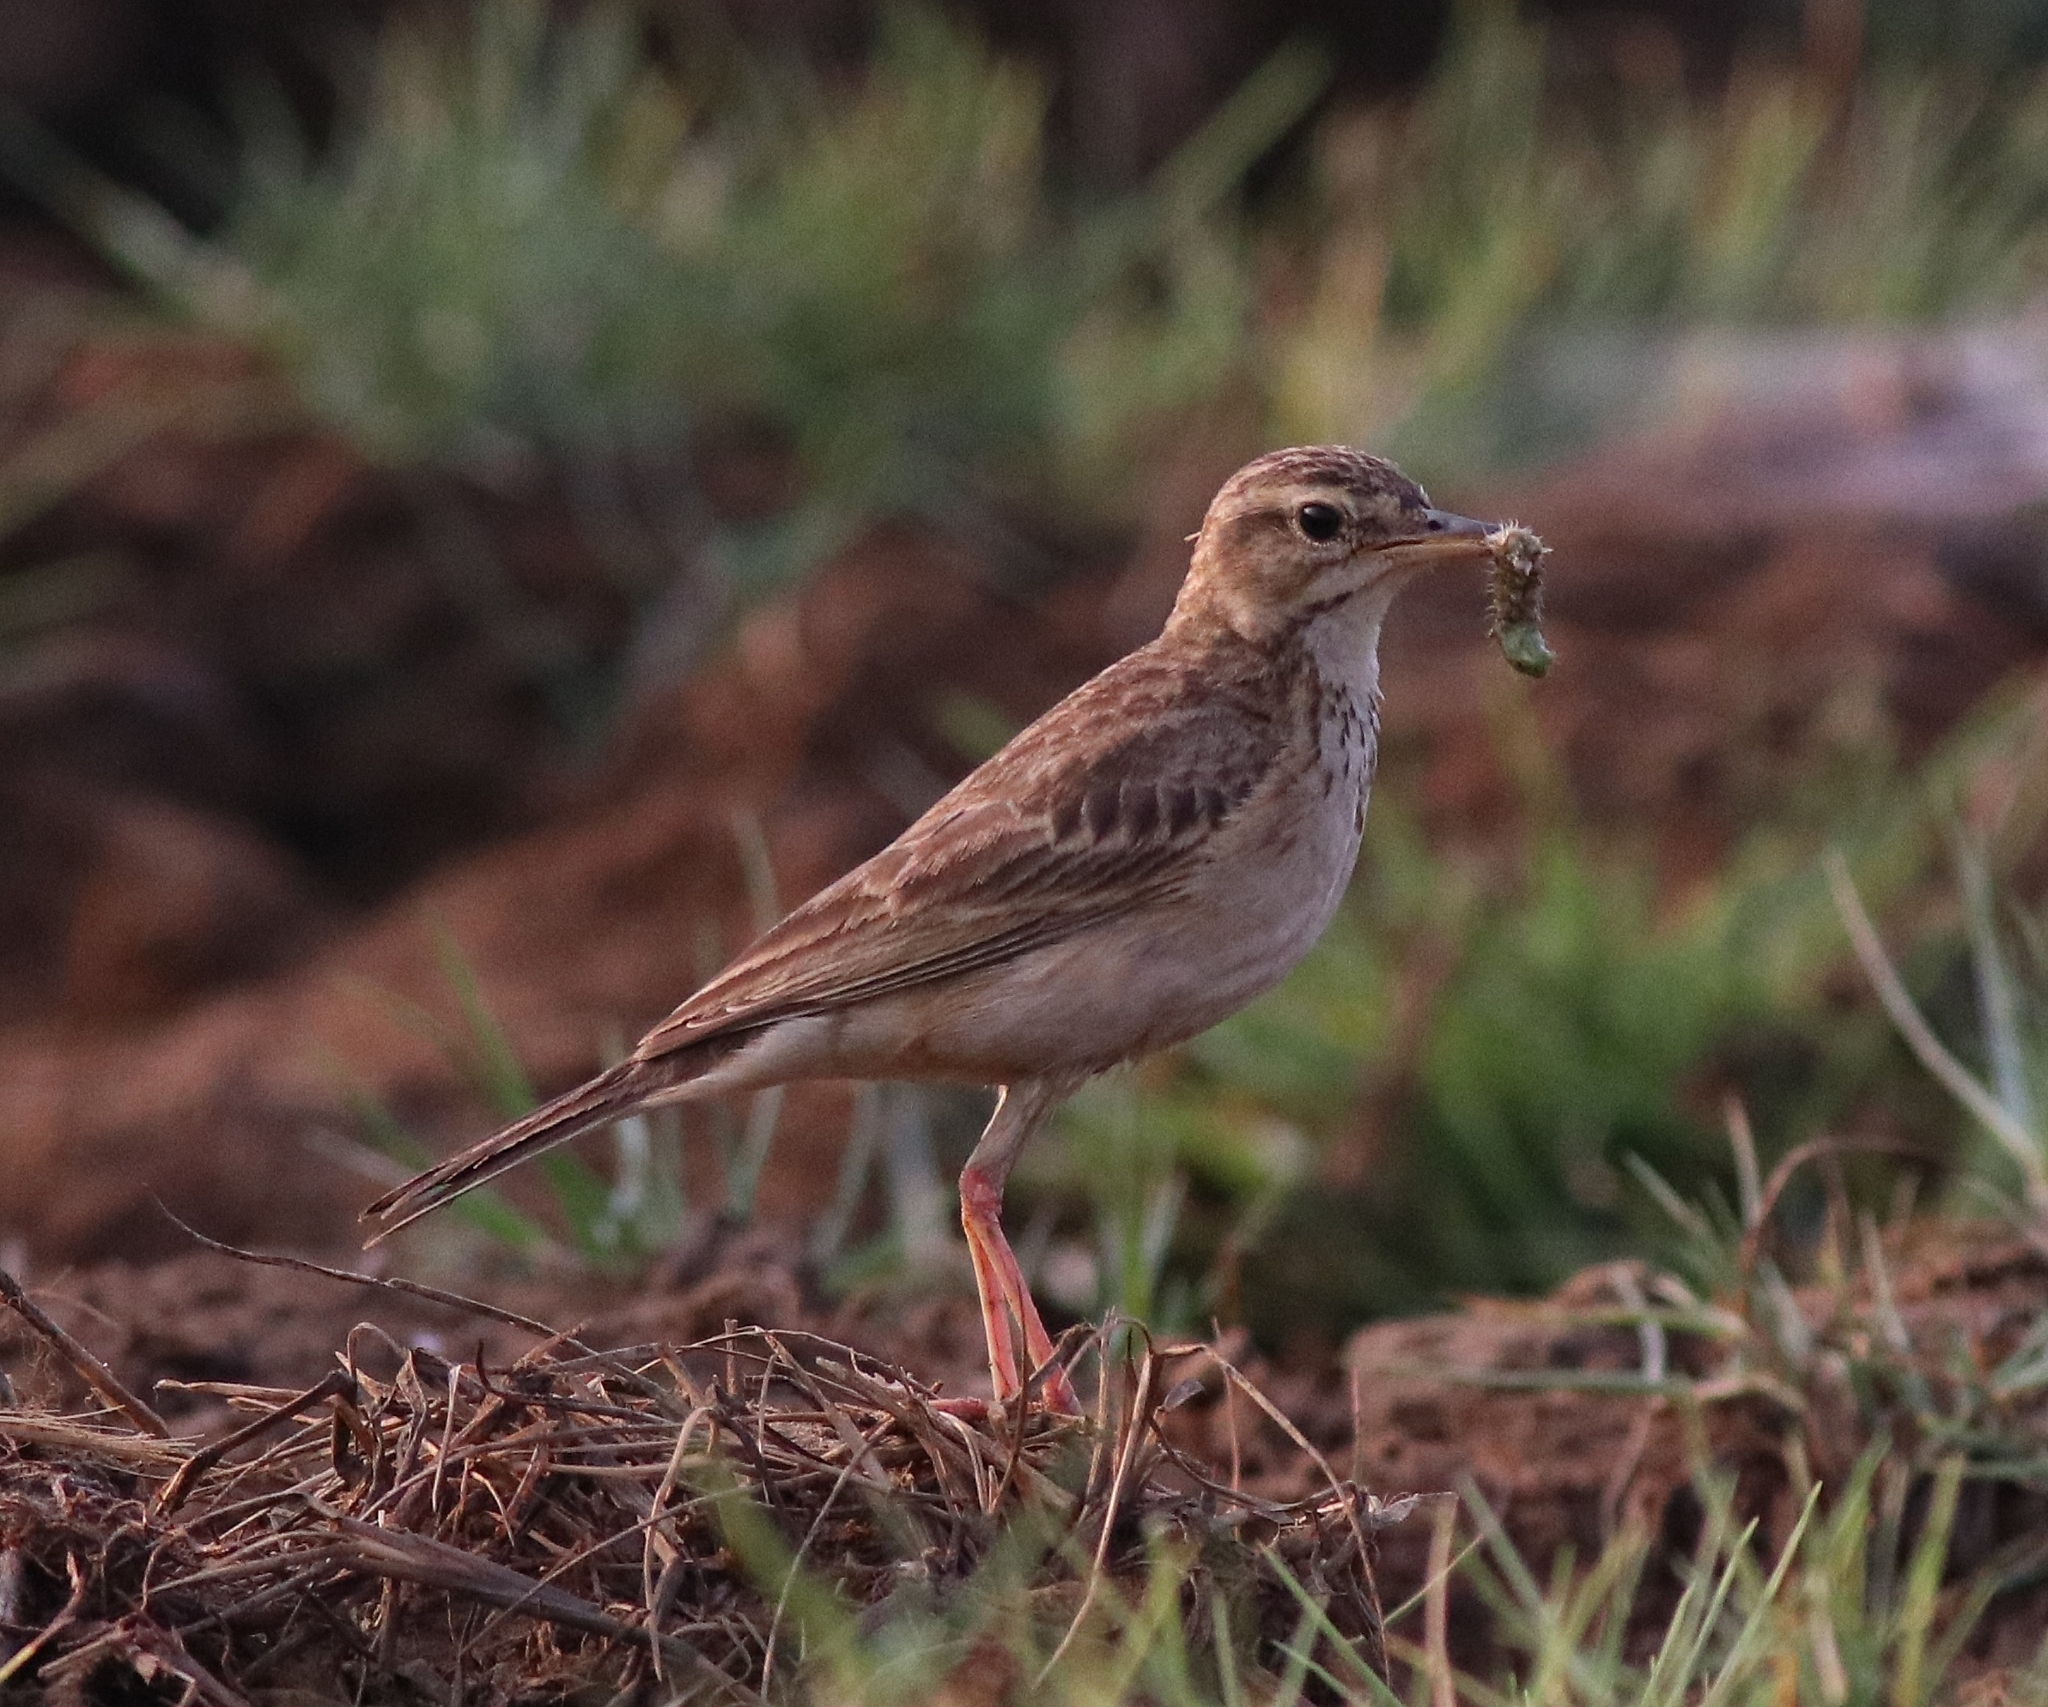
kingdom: Animalia
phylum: Chordata
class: Aves
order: Passeriformes
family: Motacillidae
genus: Anthus
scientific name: Anthus rufulus
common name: Paddyfield pipit
